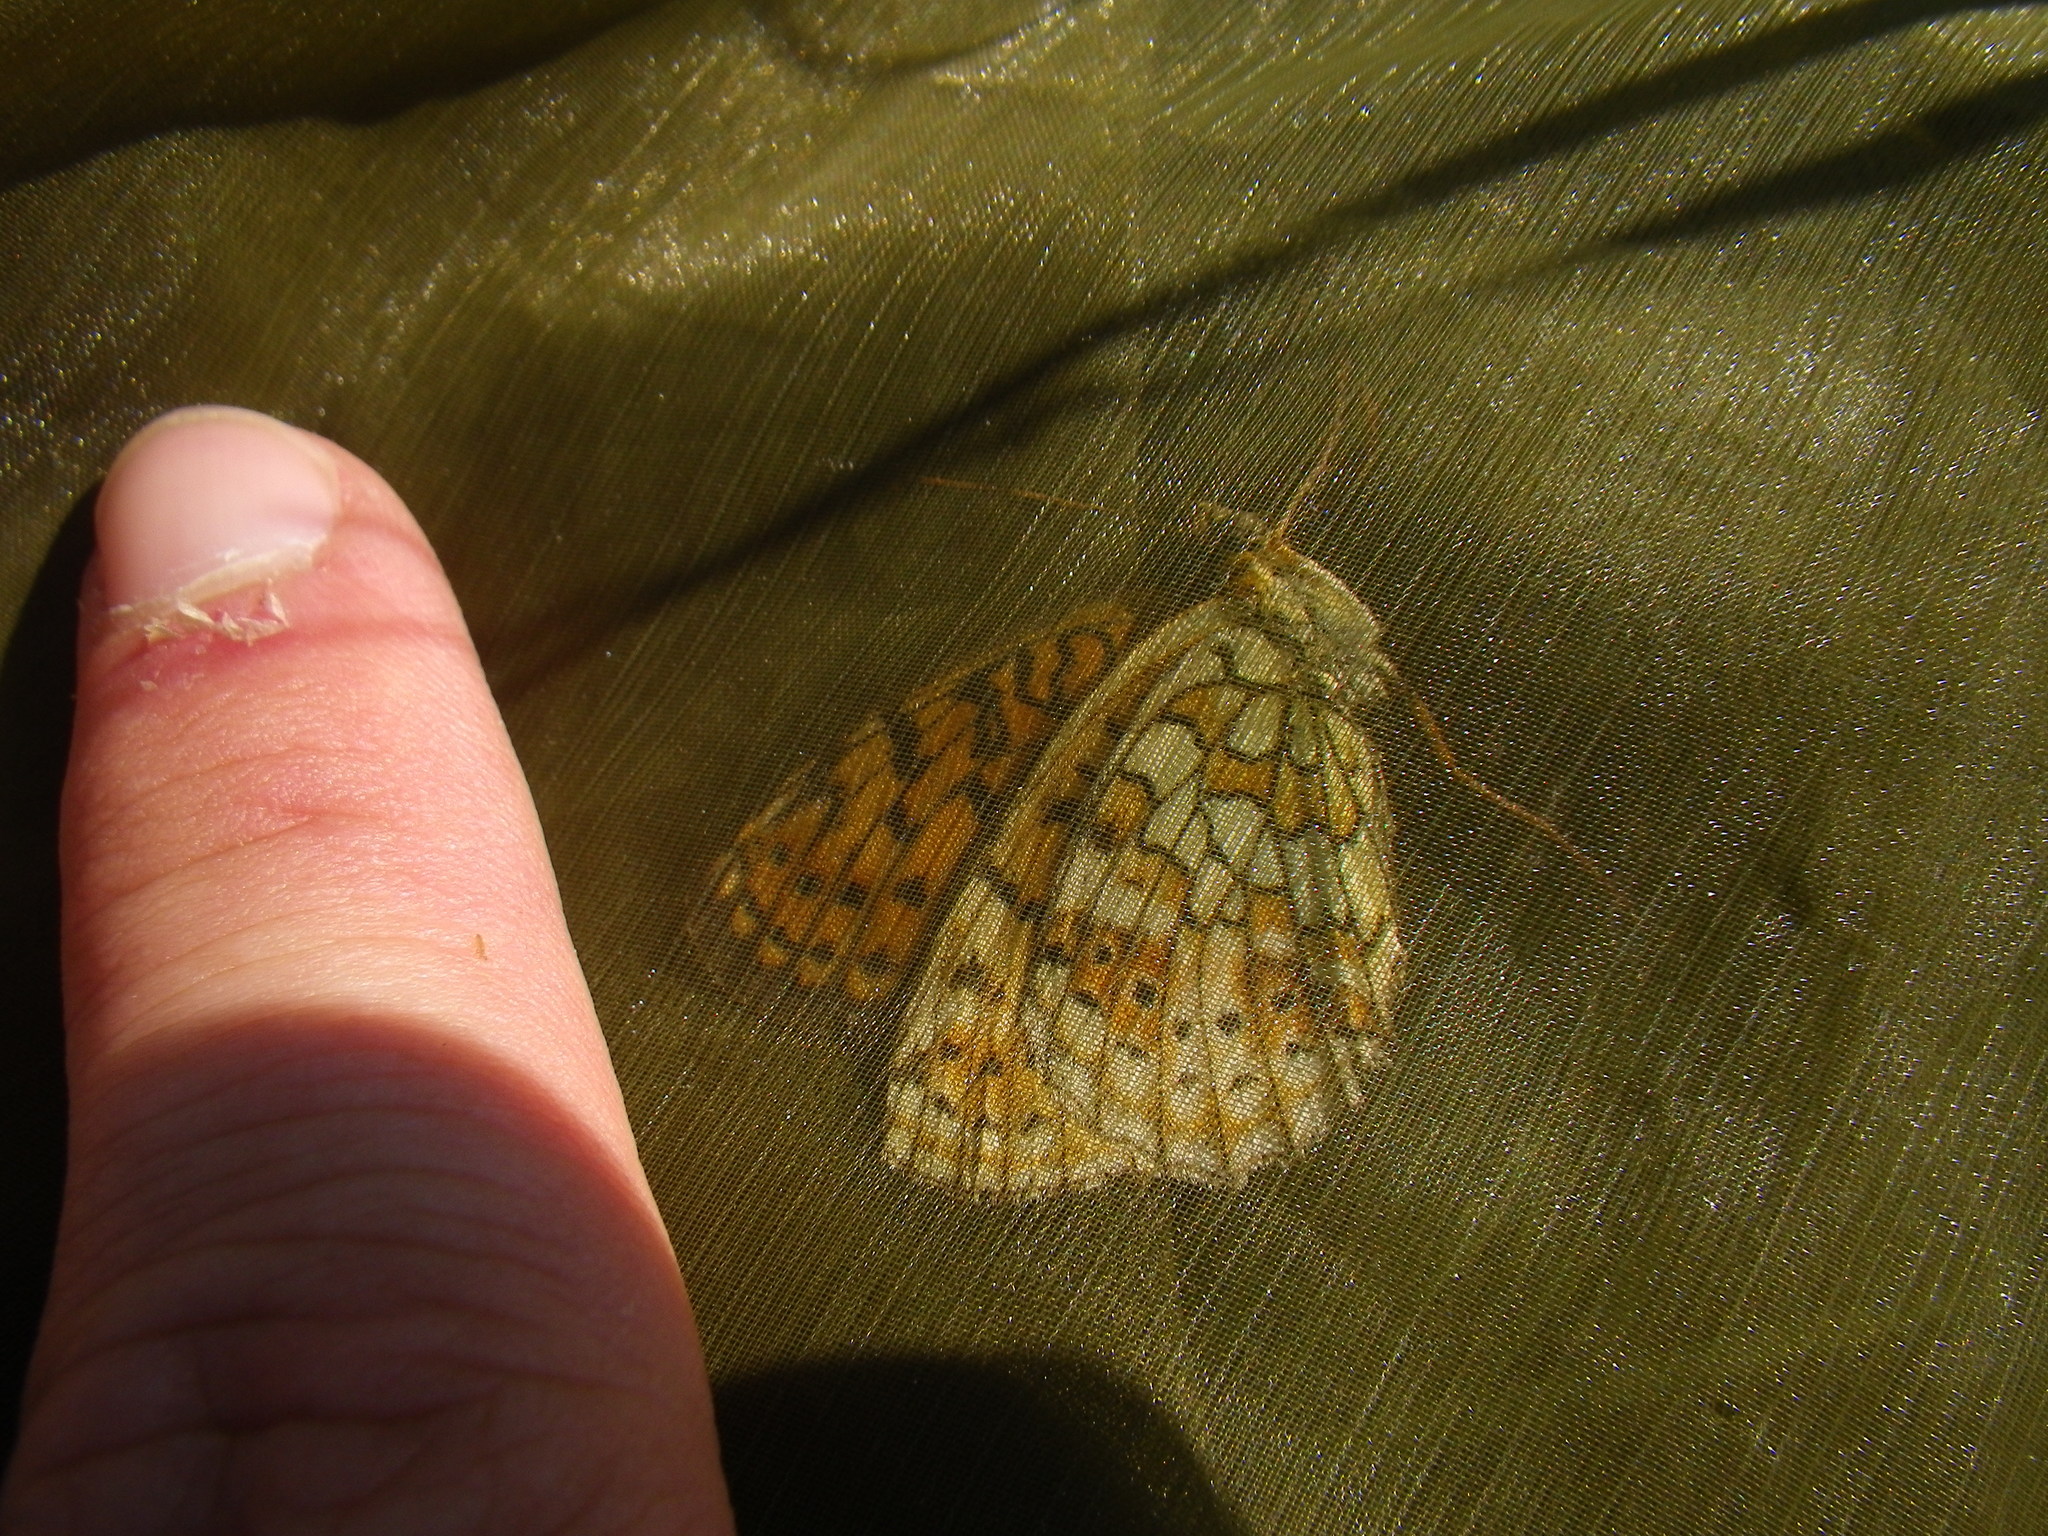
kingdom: Animalia
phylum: Arthropoda
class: Insecta
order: Lepidoptera
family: Nymphalidae
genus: Brenthis
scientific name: Brenthis hecate
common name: Twin-spot fritillary
